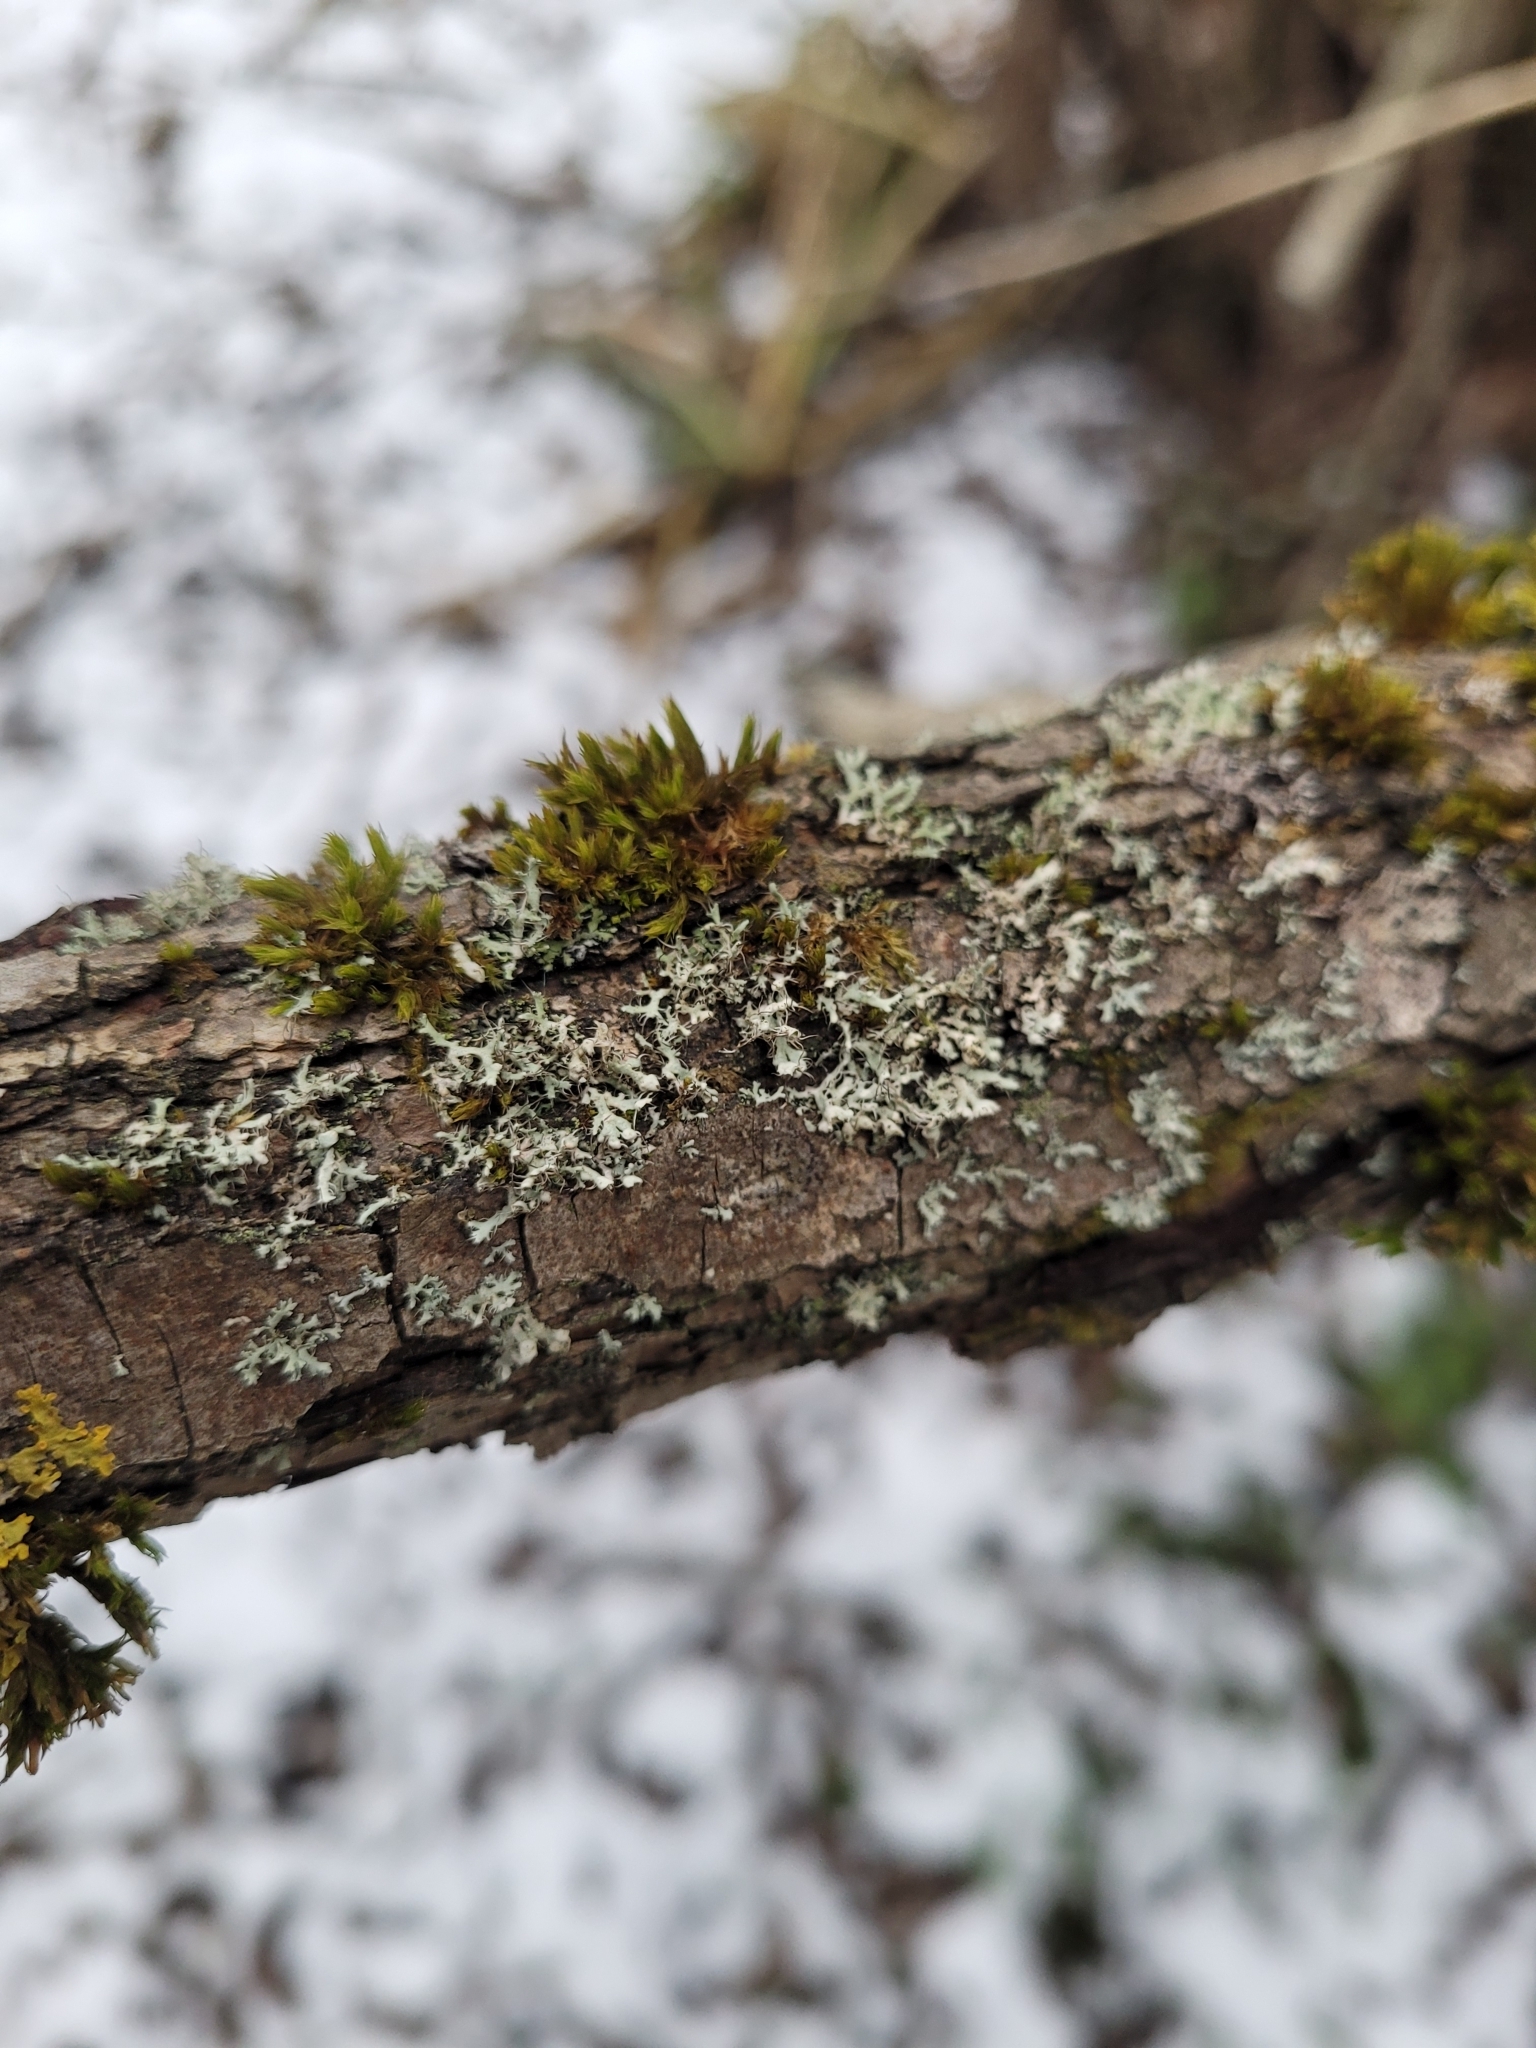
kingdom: Fungi
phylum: Ascomycota
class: Lecanoromycetes
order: Caliciales
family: Physciaceae
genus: Physcia
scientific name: Physcia adscendens
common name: Hooded rosette lichen
